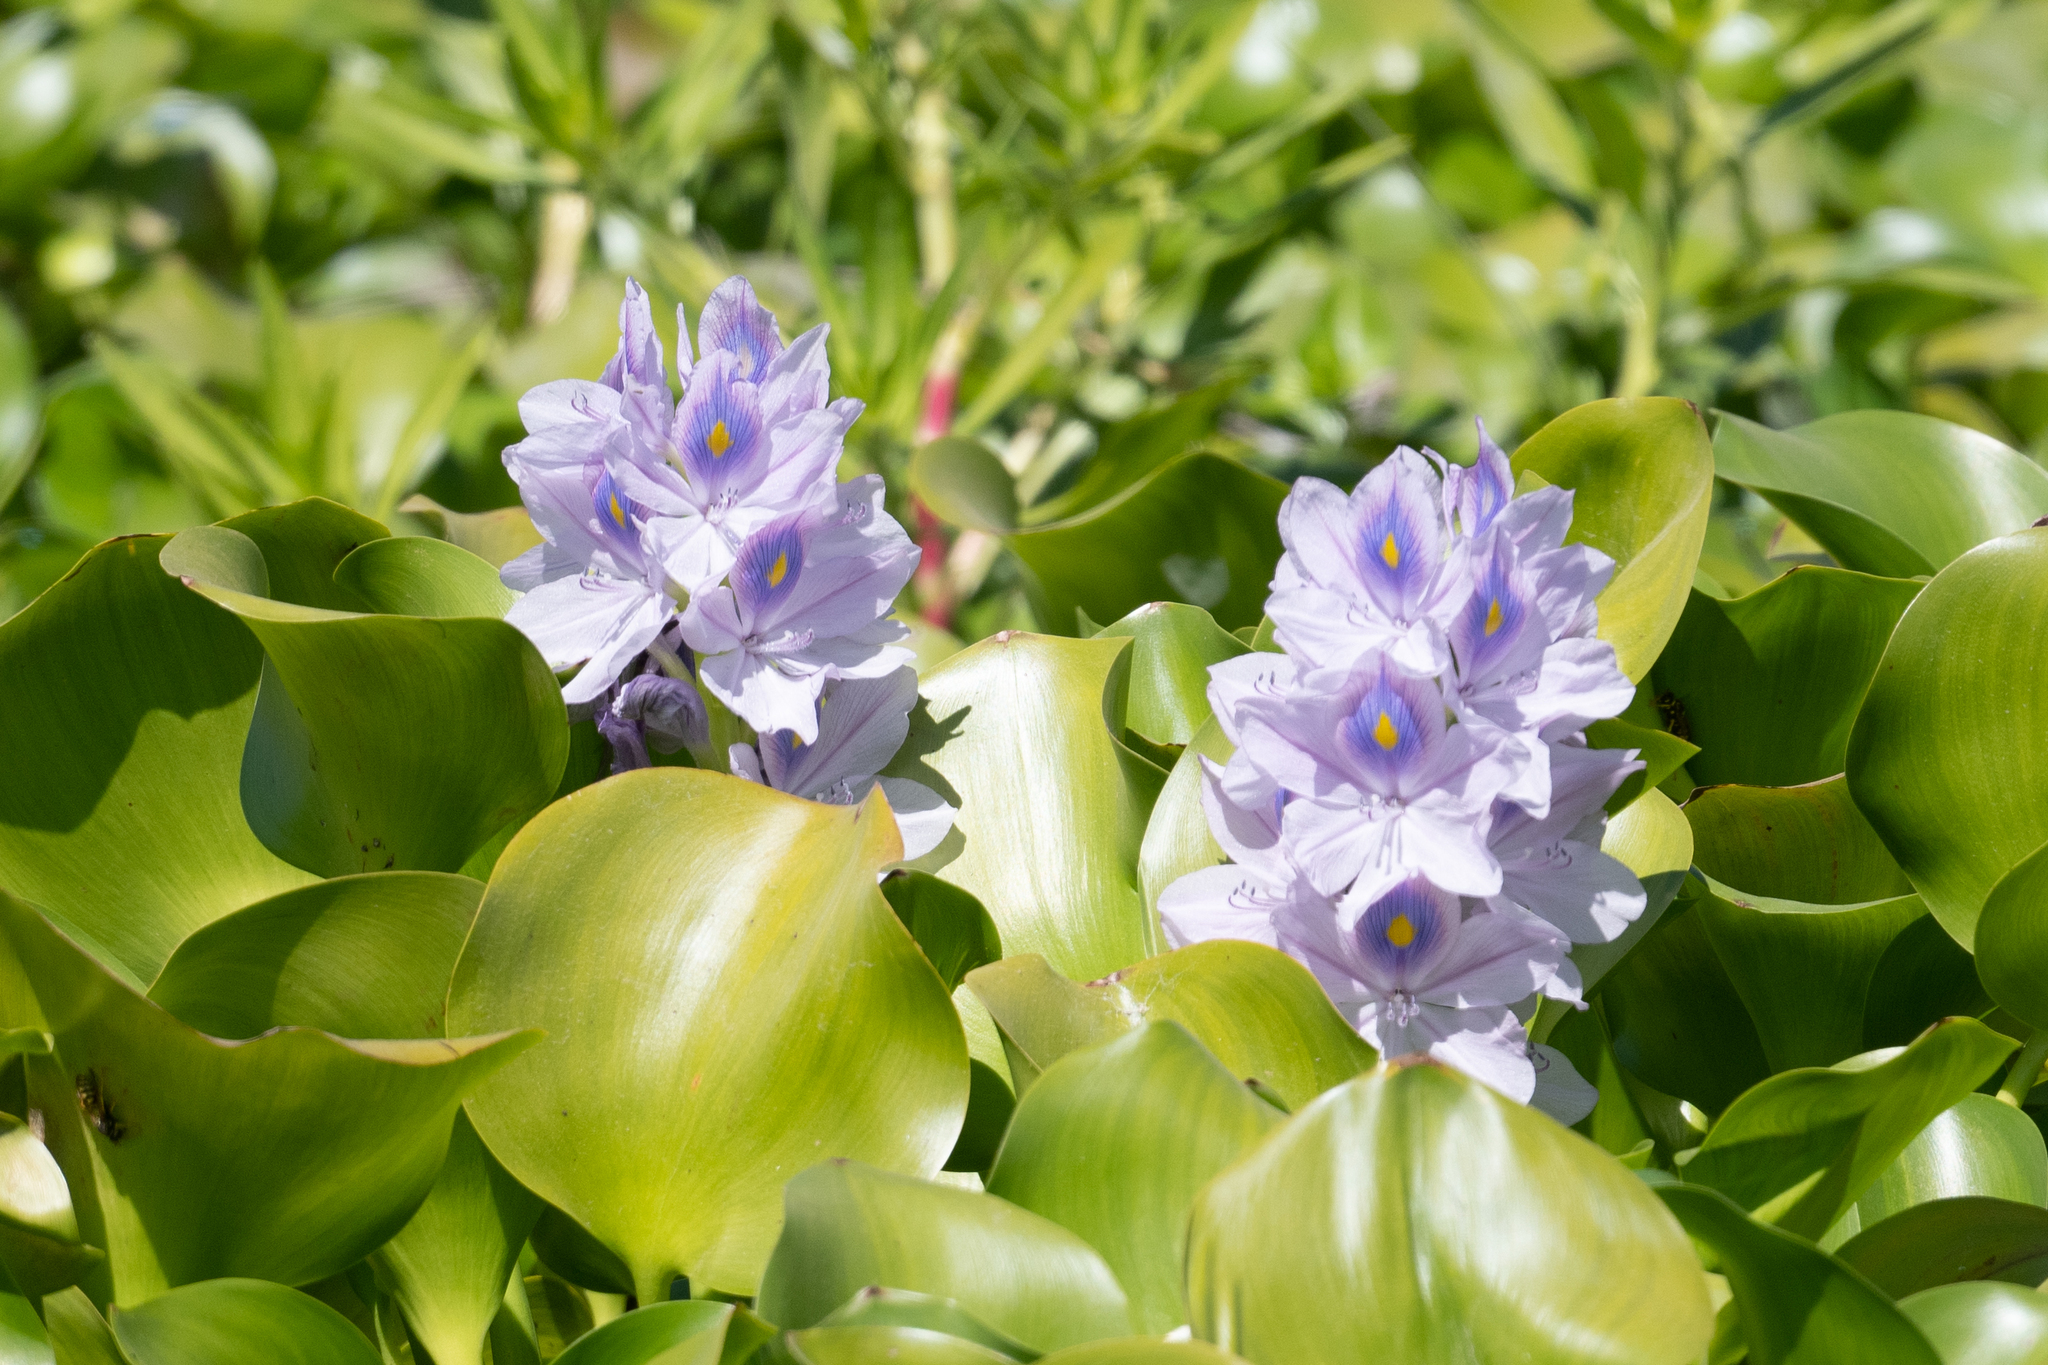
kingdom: Plantae
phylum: Tracheophyta
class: Liliopsida
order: Commelinales
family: Pontederiaceae
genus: Pontederia
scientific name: Pontederia crassipes
